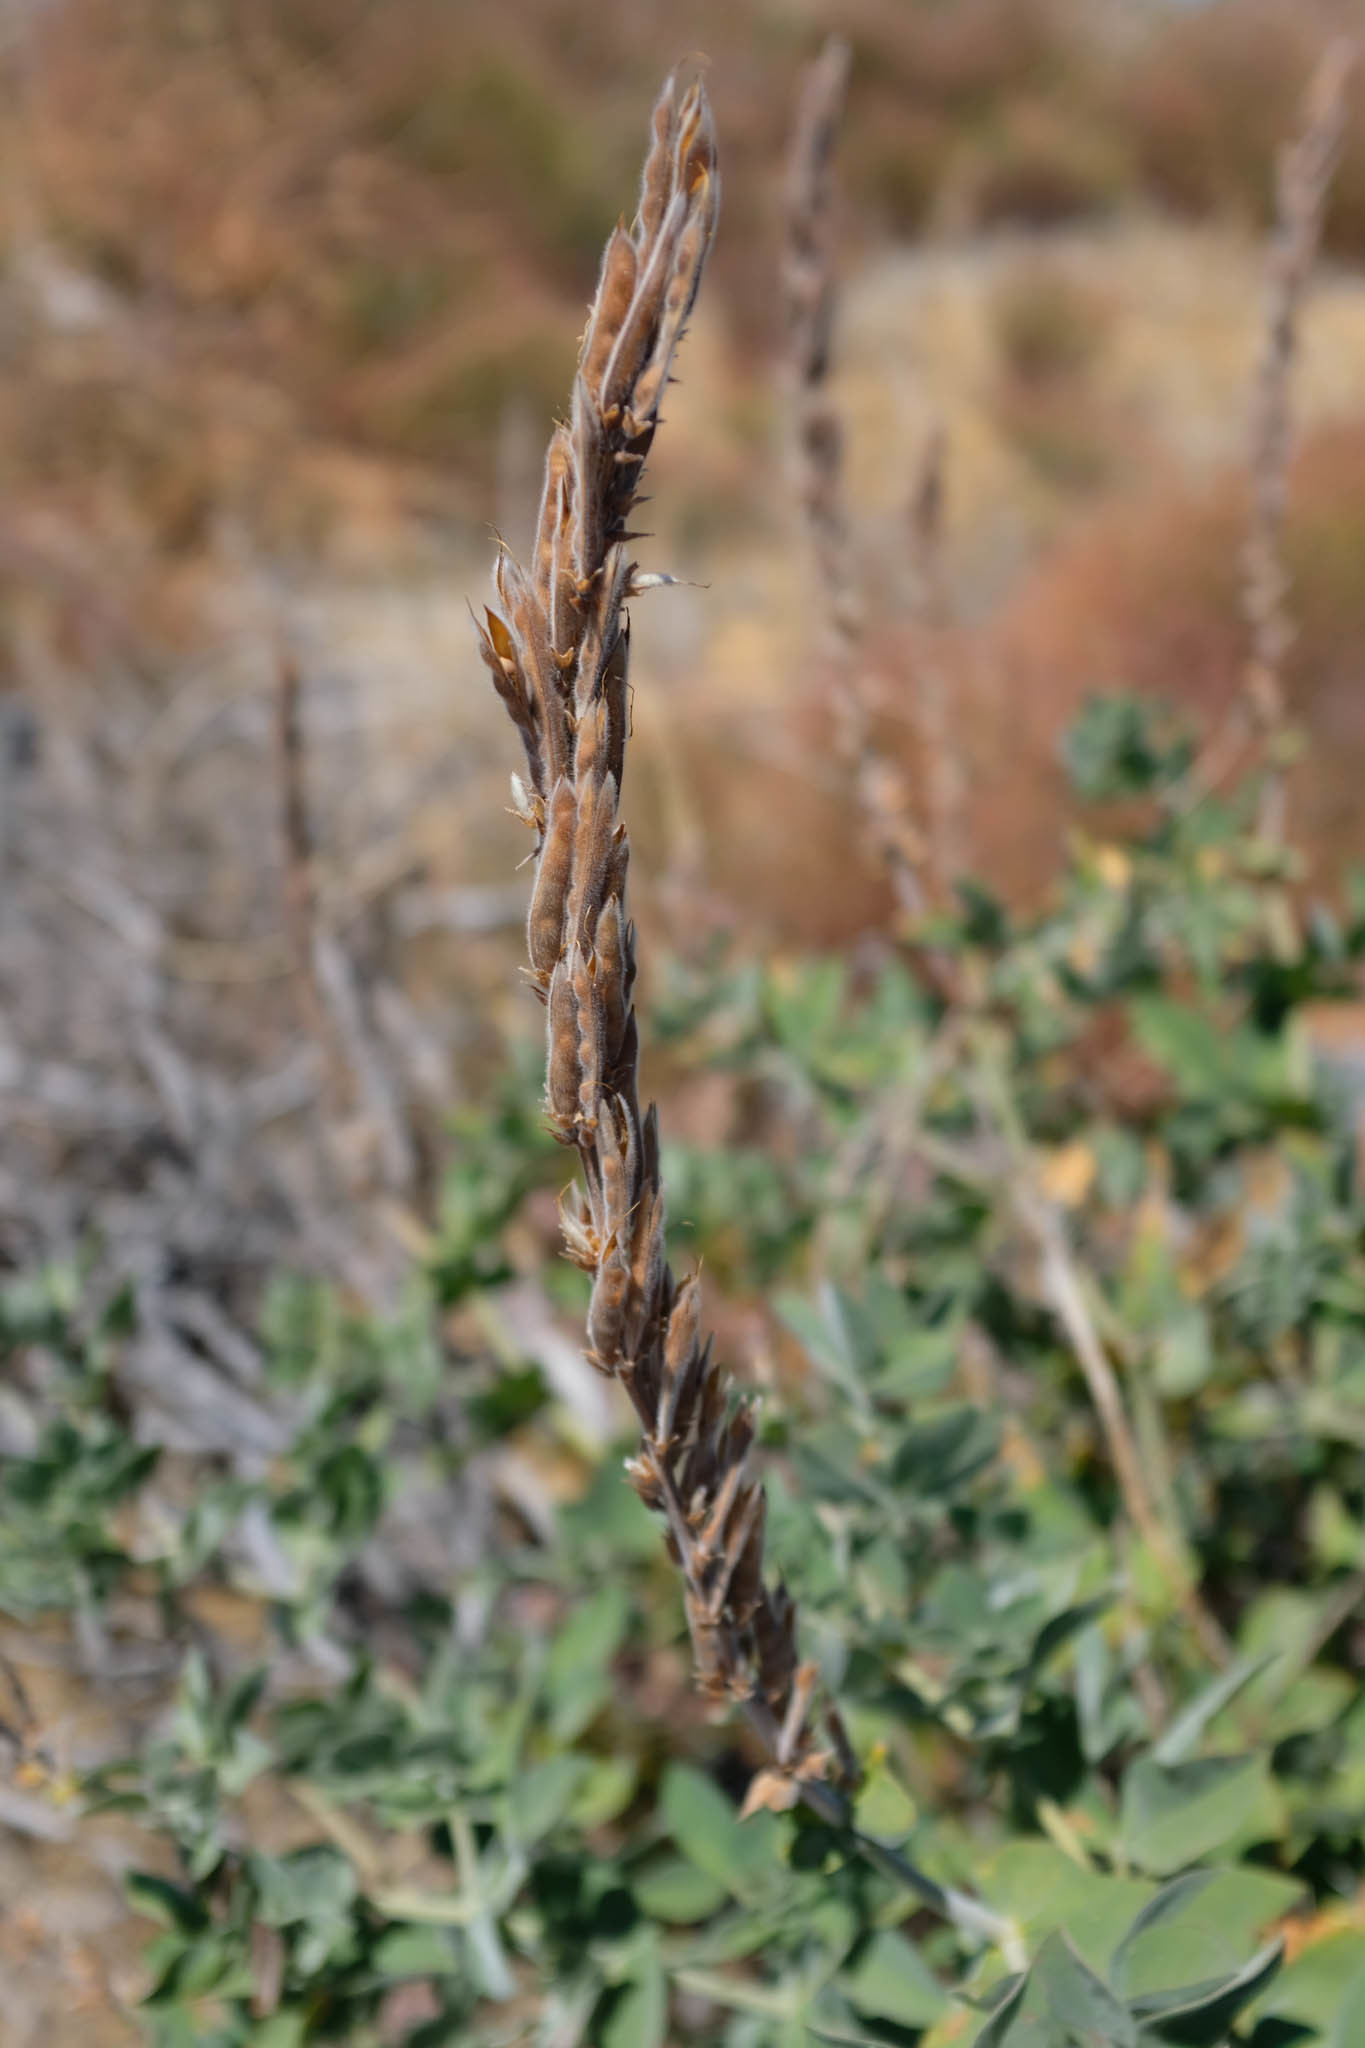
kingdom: Plantae
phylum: Tracheophyta
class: Magnoliopsida
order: Fabales
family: Fabaceae
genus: Thermopsis
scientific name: Thermopsis macrophylla
